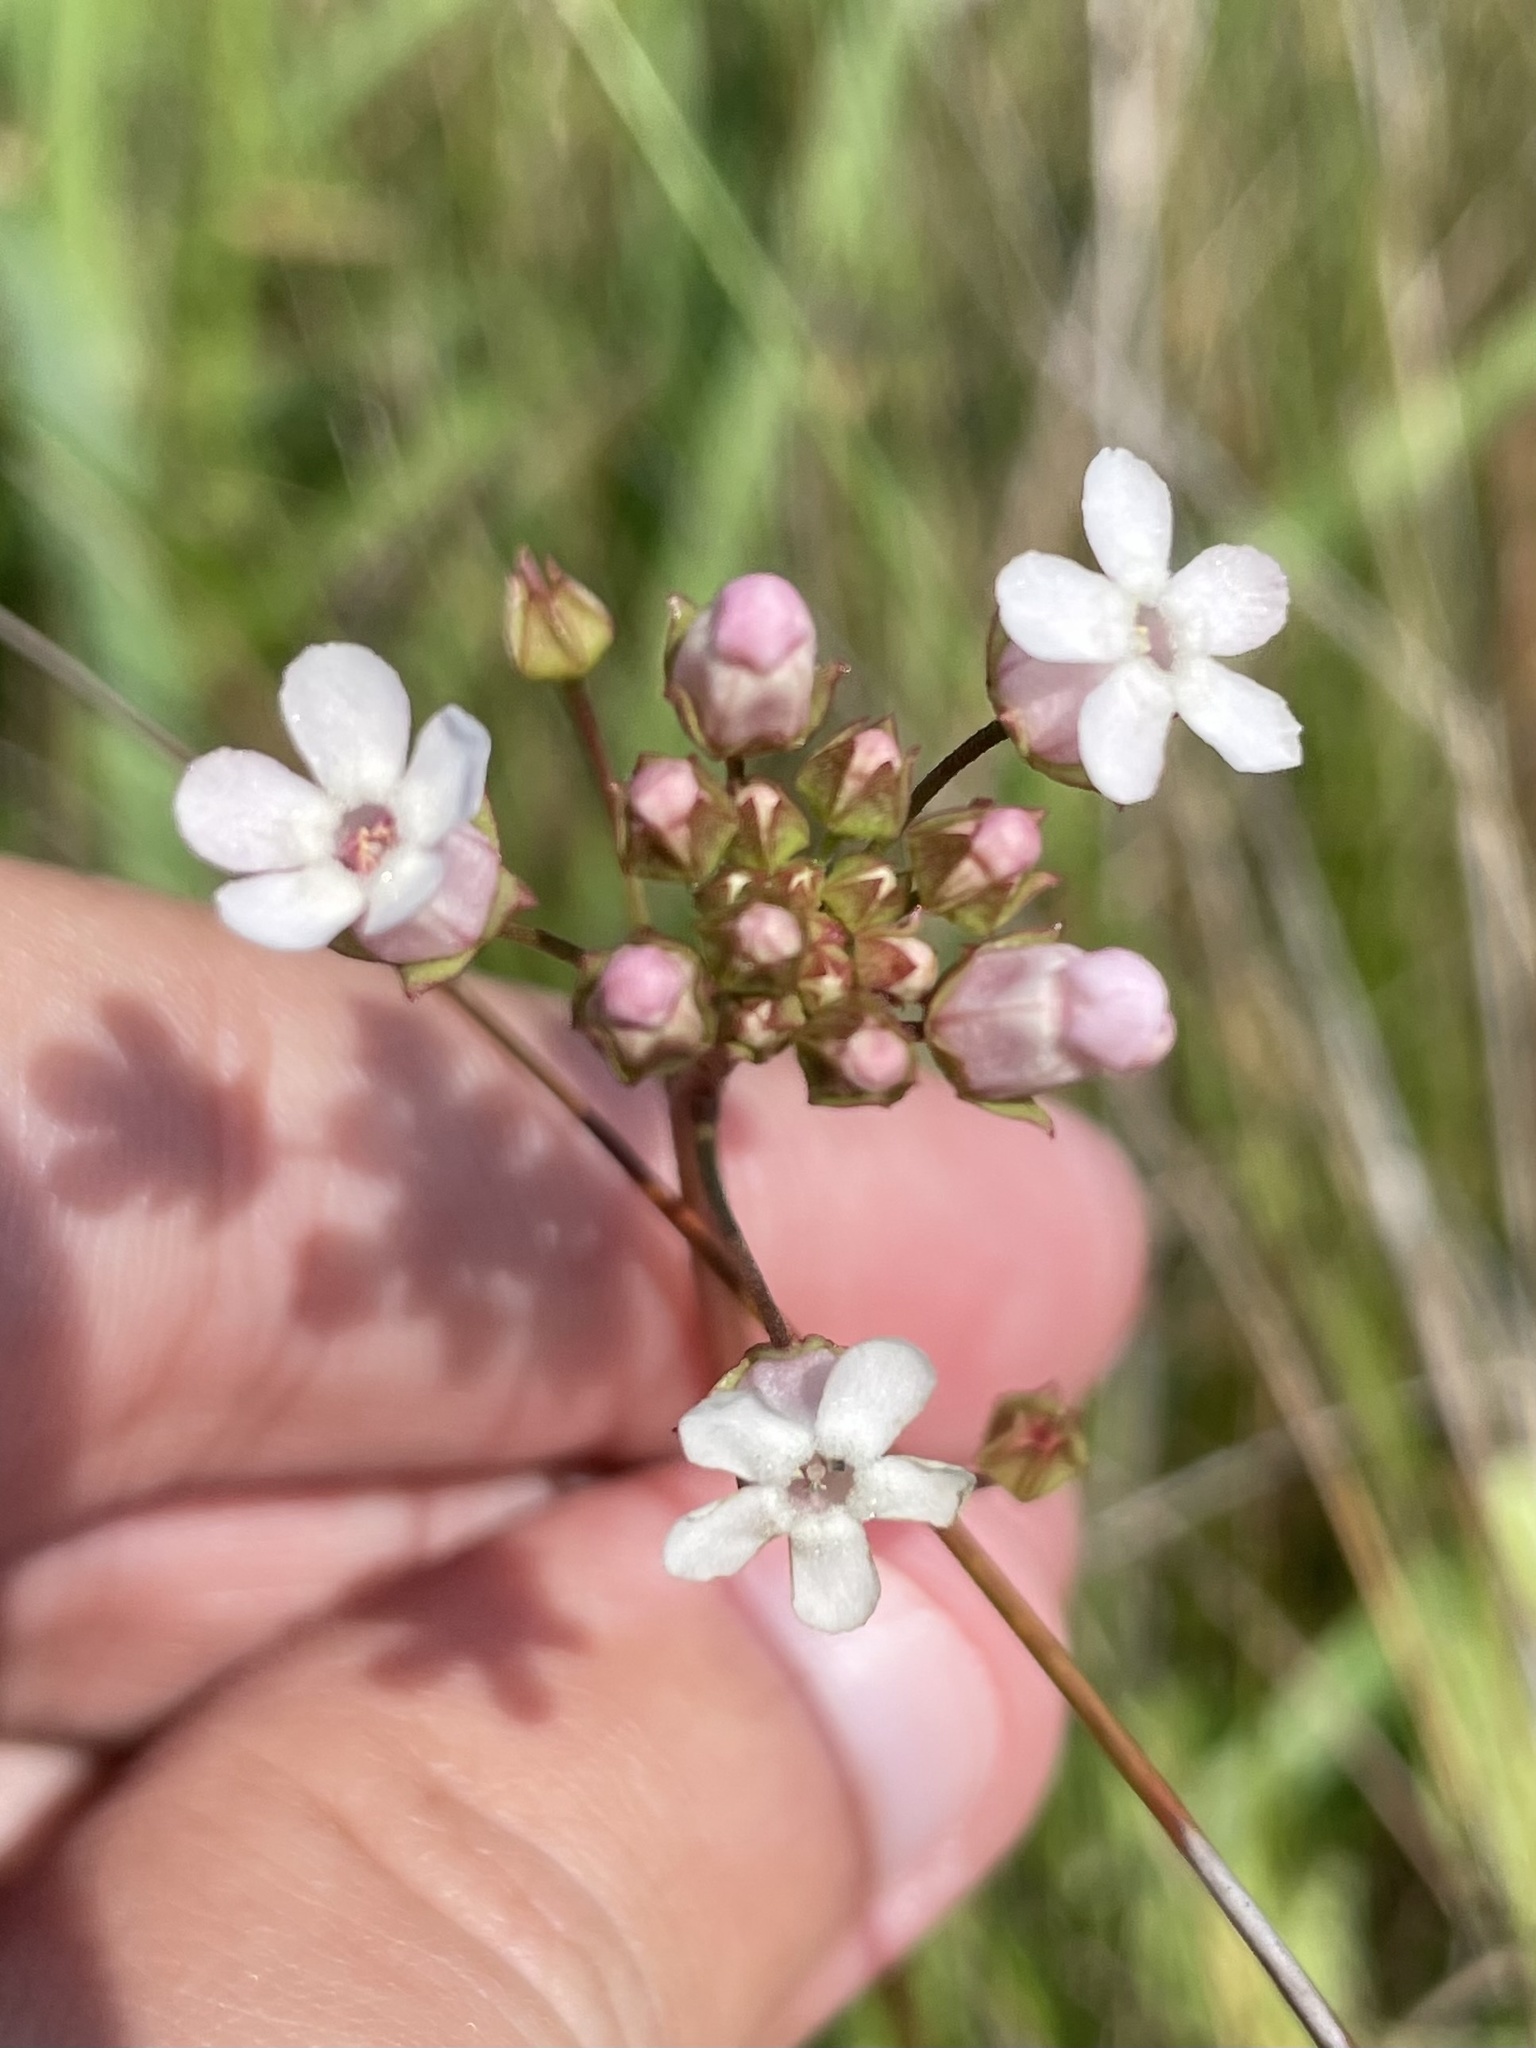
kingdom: Plantae
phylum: Tracheophyta
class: Magnoliopsida
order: Ericales
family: Primulaceae
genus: Samolus
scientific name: Samolus ebracteatus
